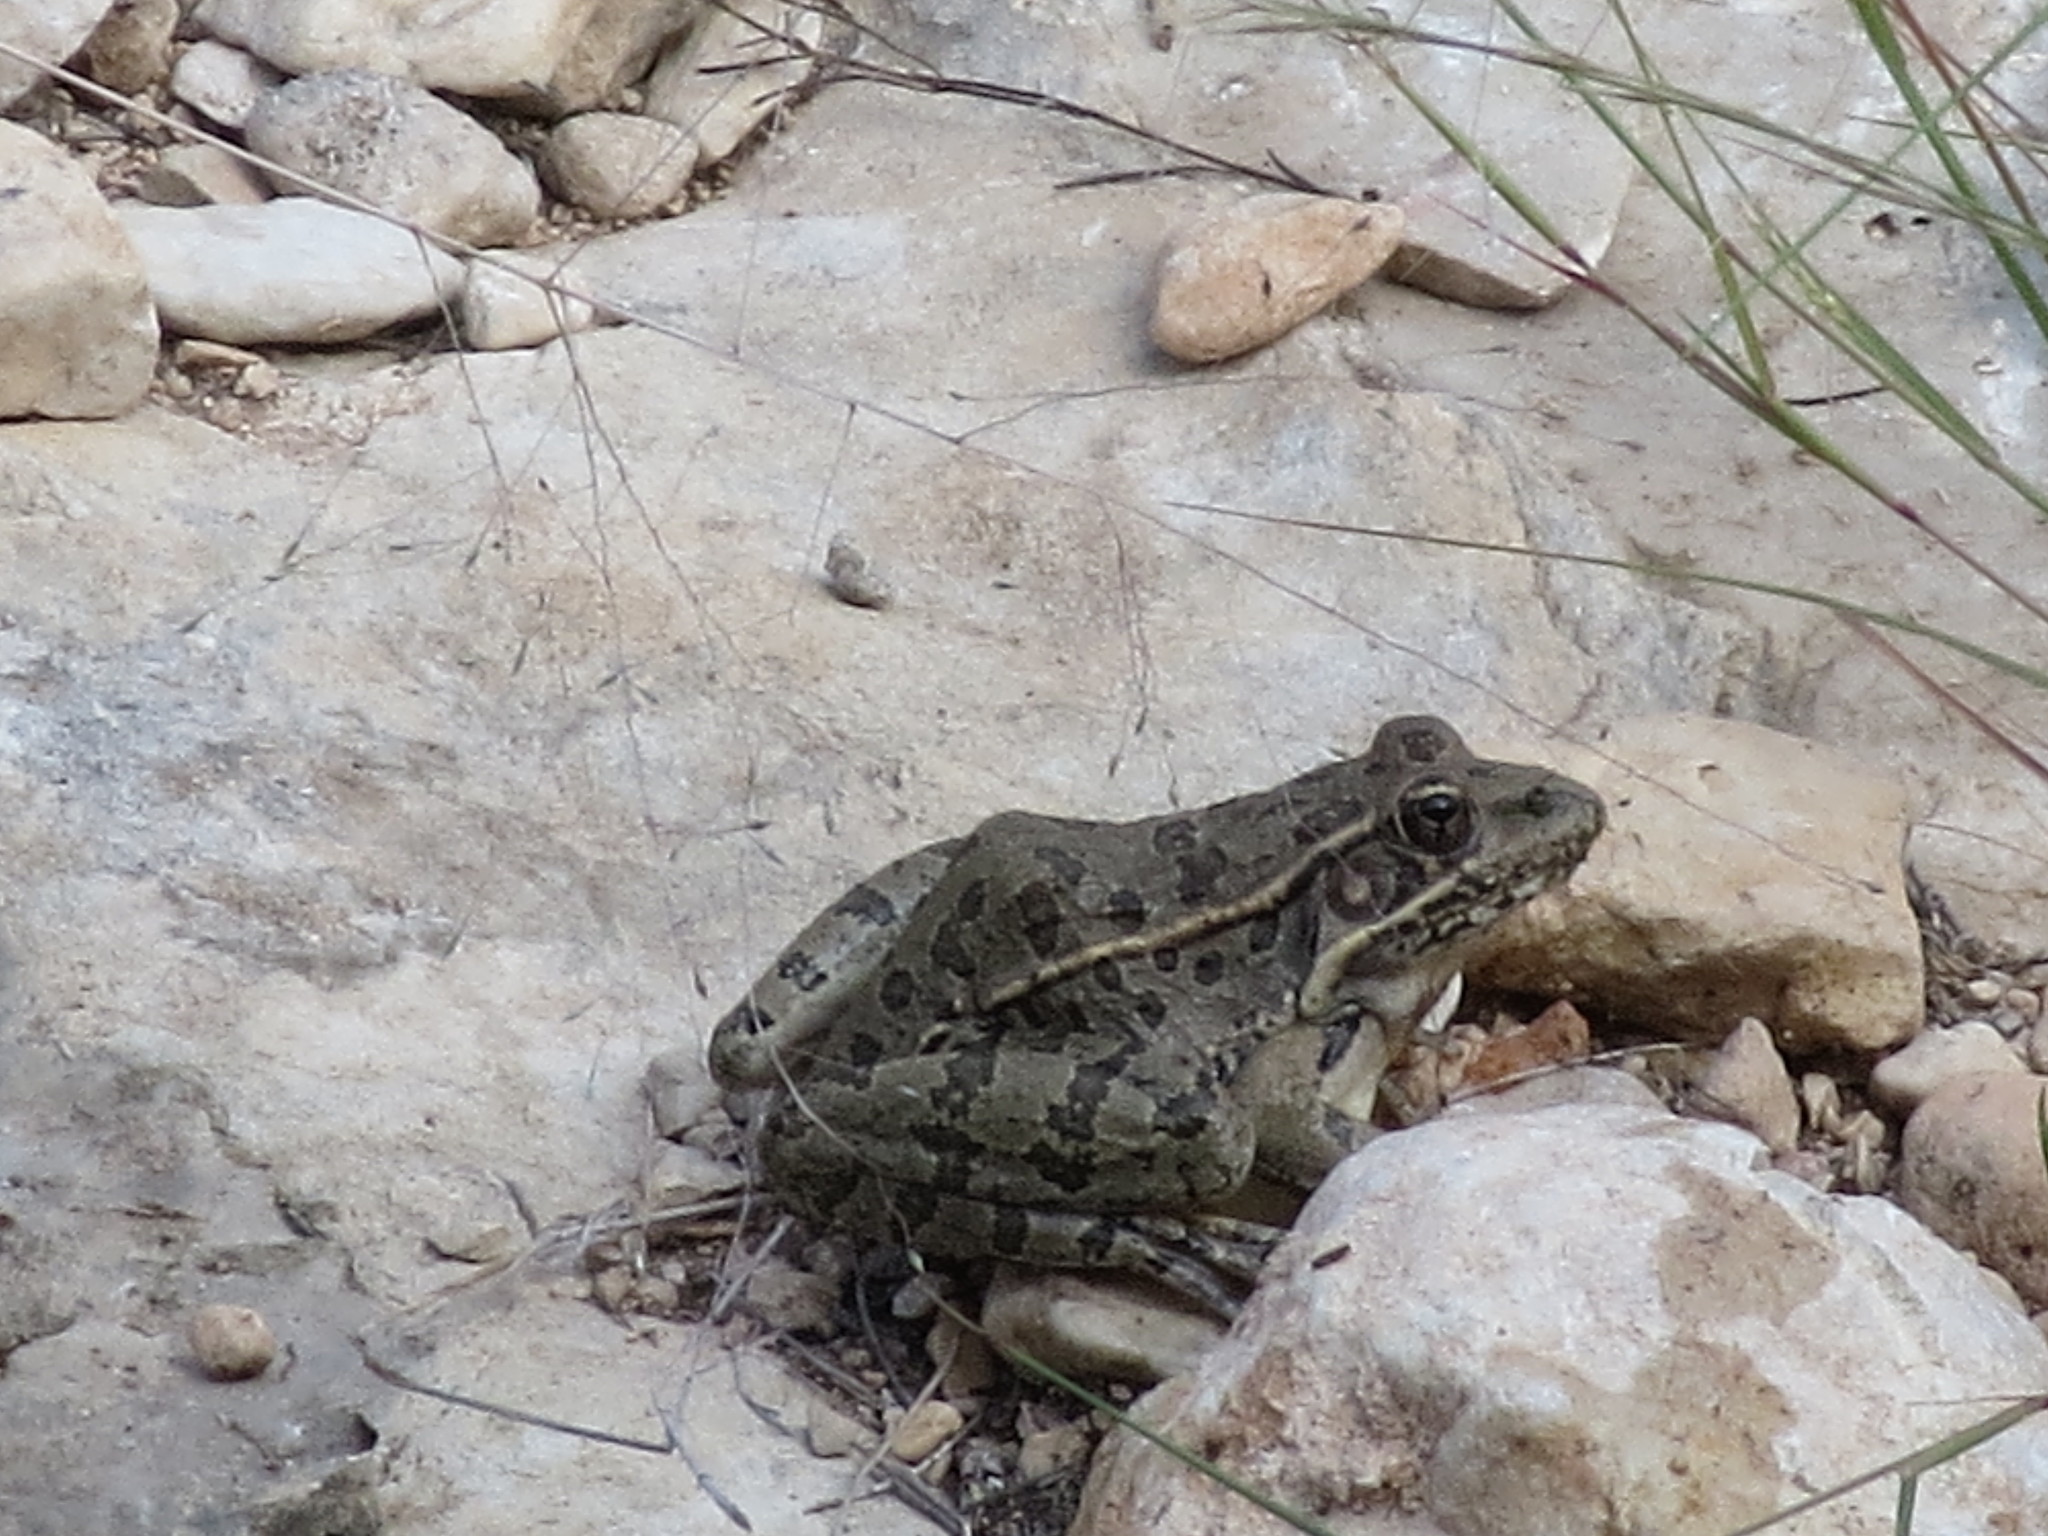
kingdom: Animalia
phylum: Chordata
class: Amphibia
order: Anura
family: Ranidae
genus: Lithobates
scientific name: Lithobates berlandieri
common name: Rio grande leopard frog
